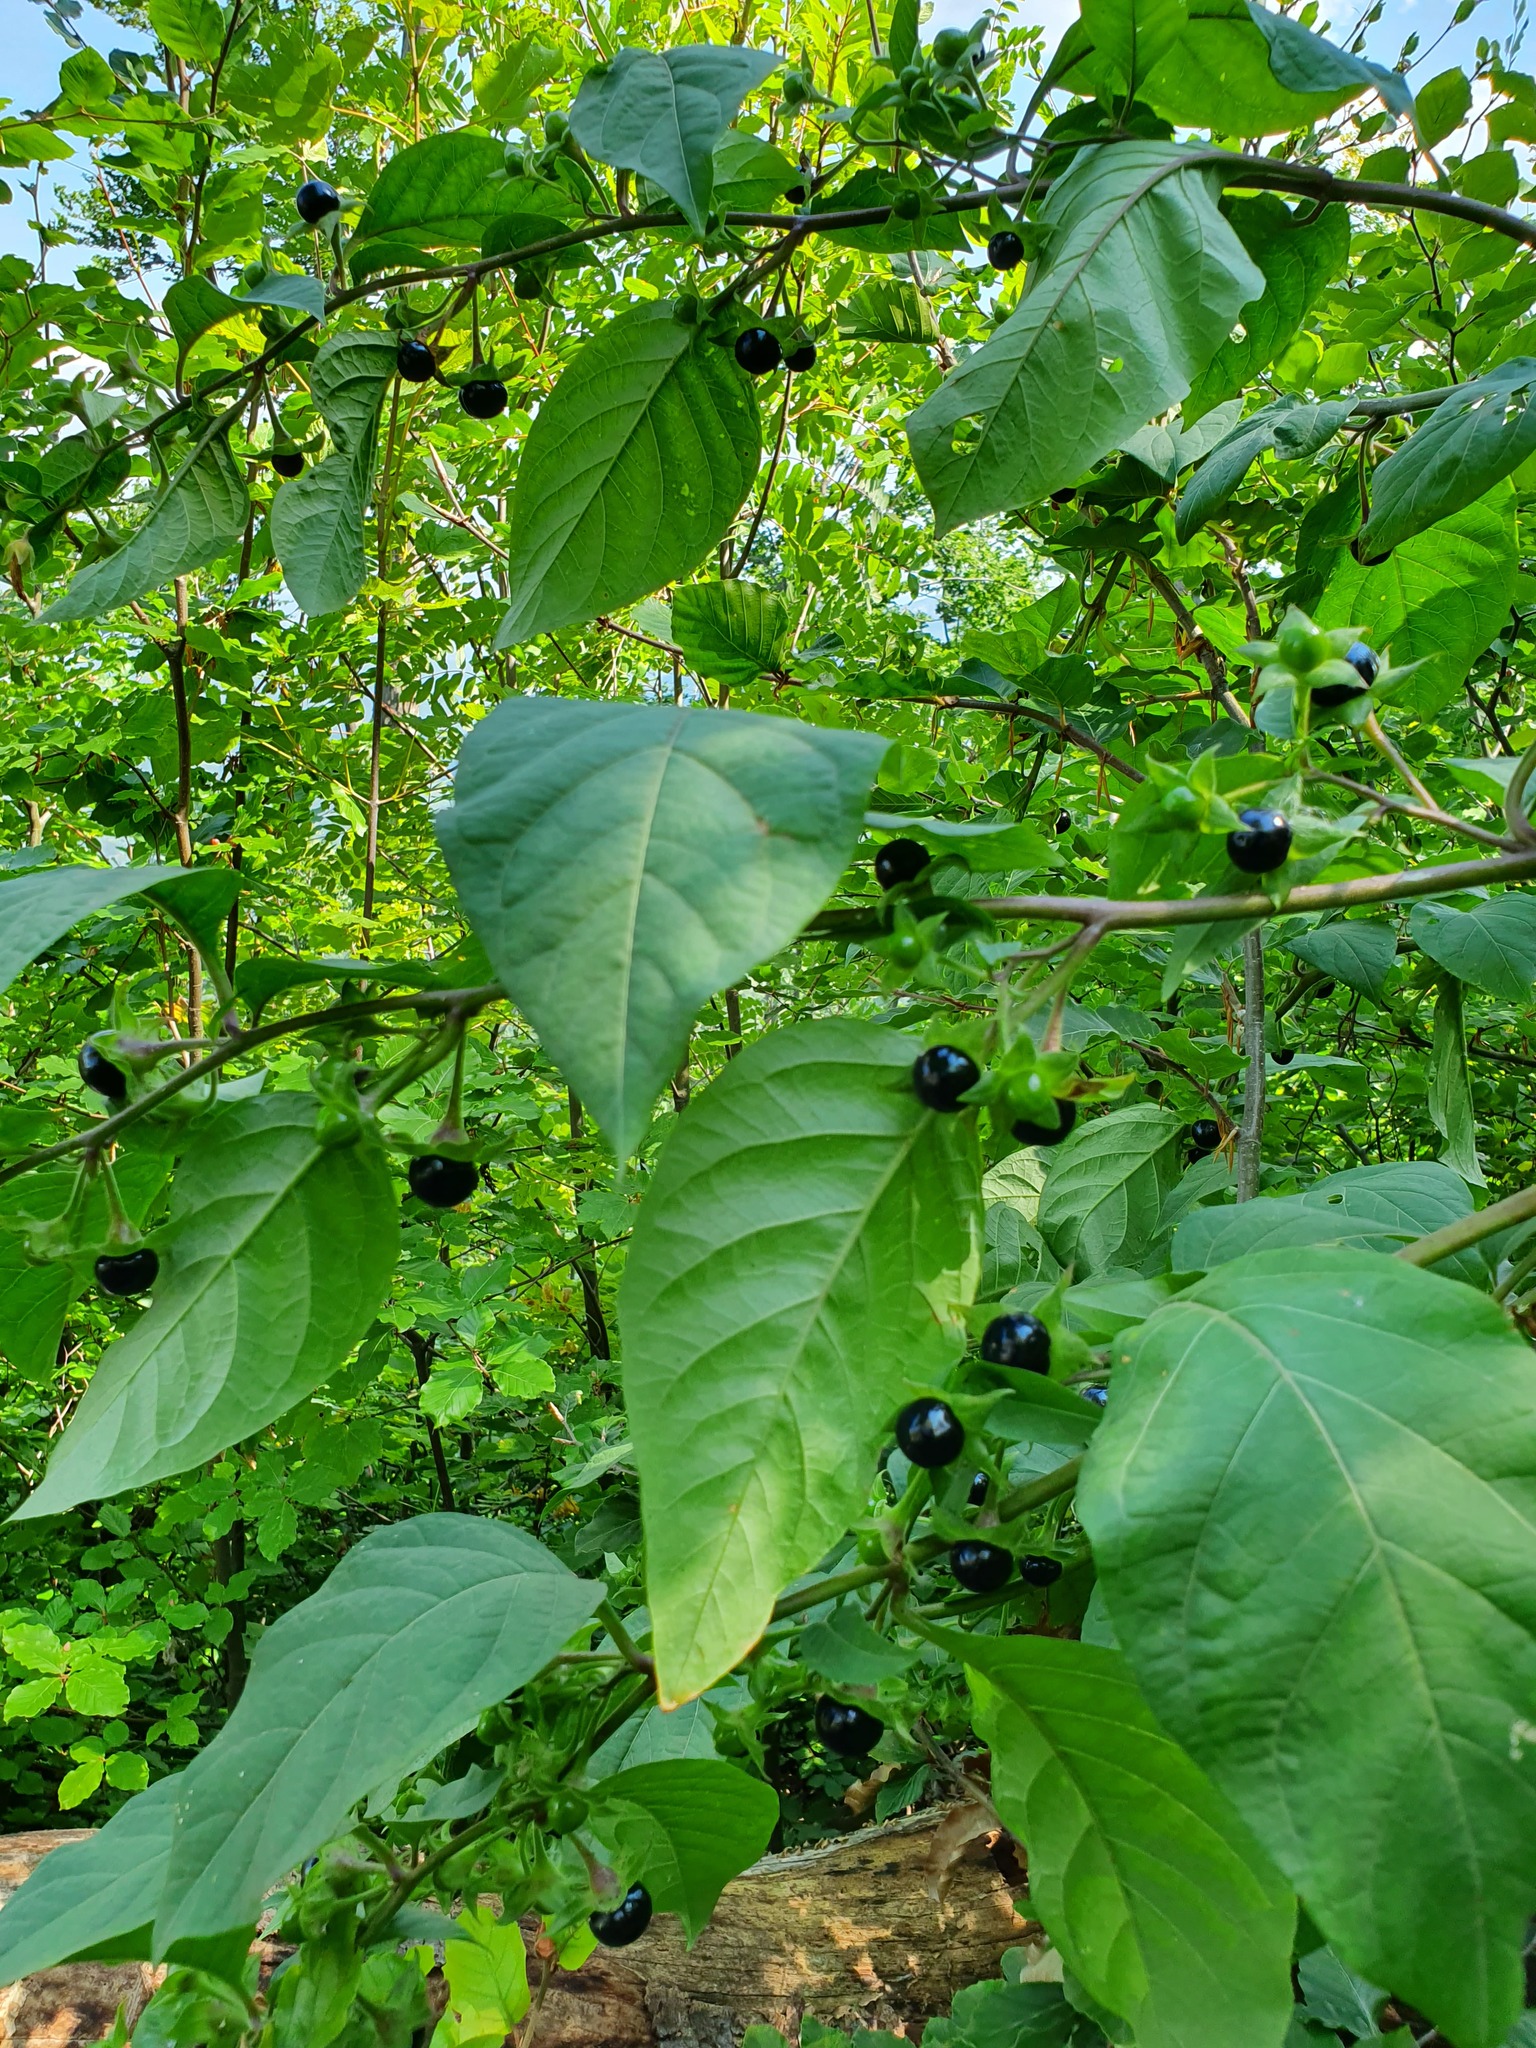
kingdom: Plantae
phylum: Tracheophyta
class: Magnoliopsida
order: Solanales
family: Solanaceae
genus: Atropa
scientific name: Atropa belladonna
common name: Deadly nightshade
